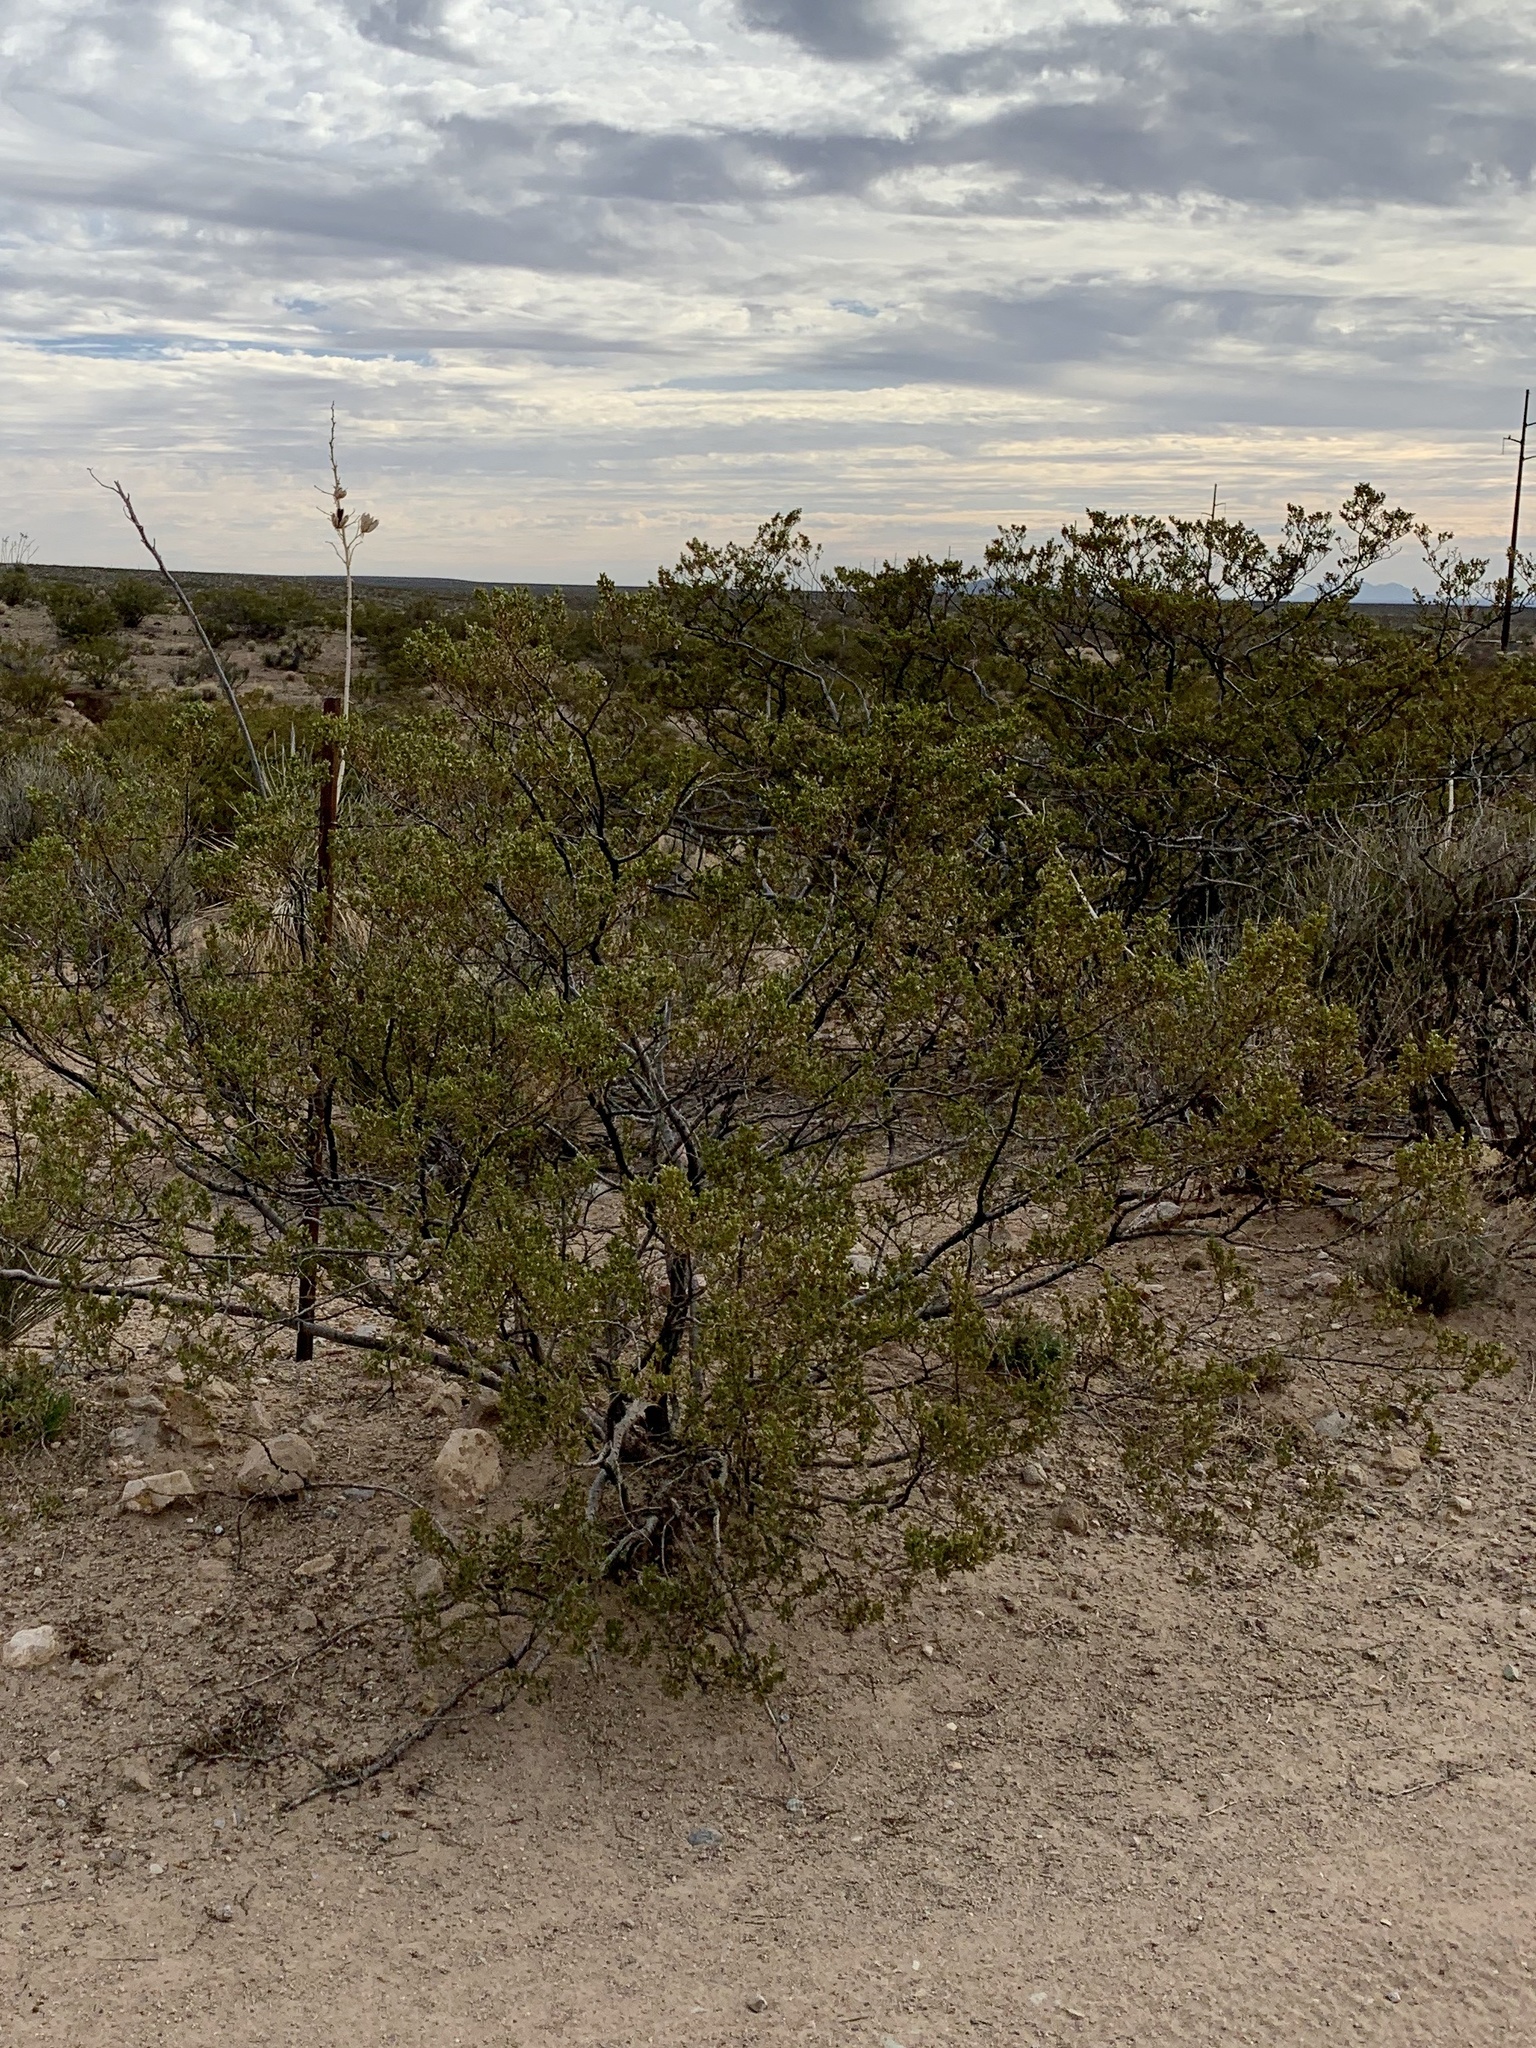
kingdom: Plantae
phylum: Tracheophyta
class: Magnoliopsida
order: Zygophyllales
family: Zygophyllaceae
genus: Larrea
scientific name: Larrea tridentata
